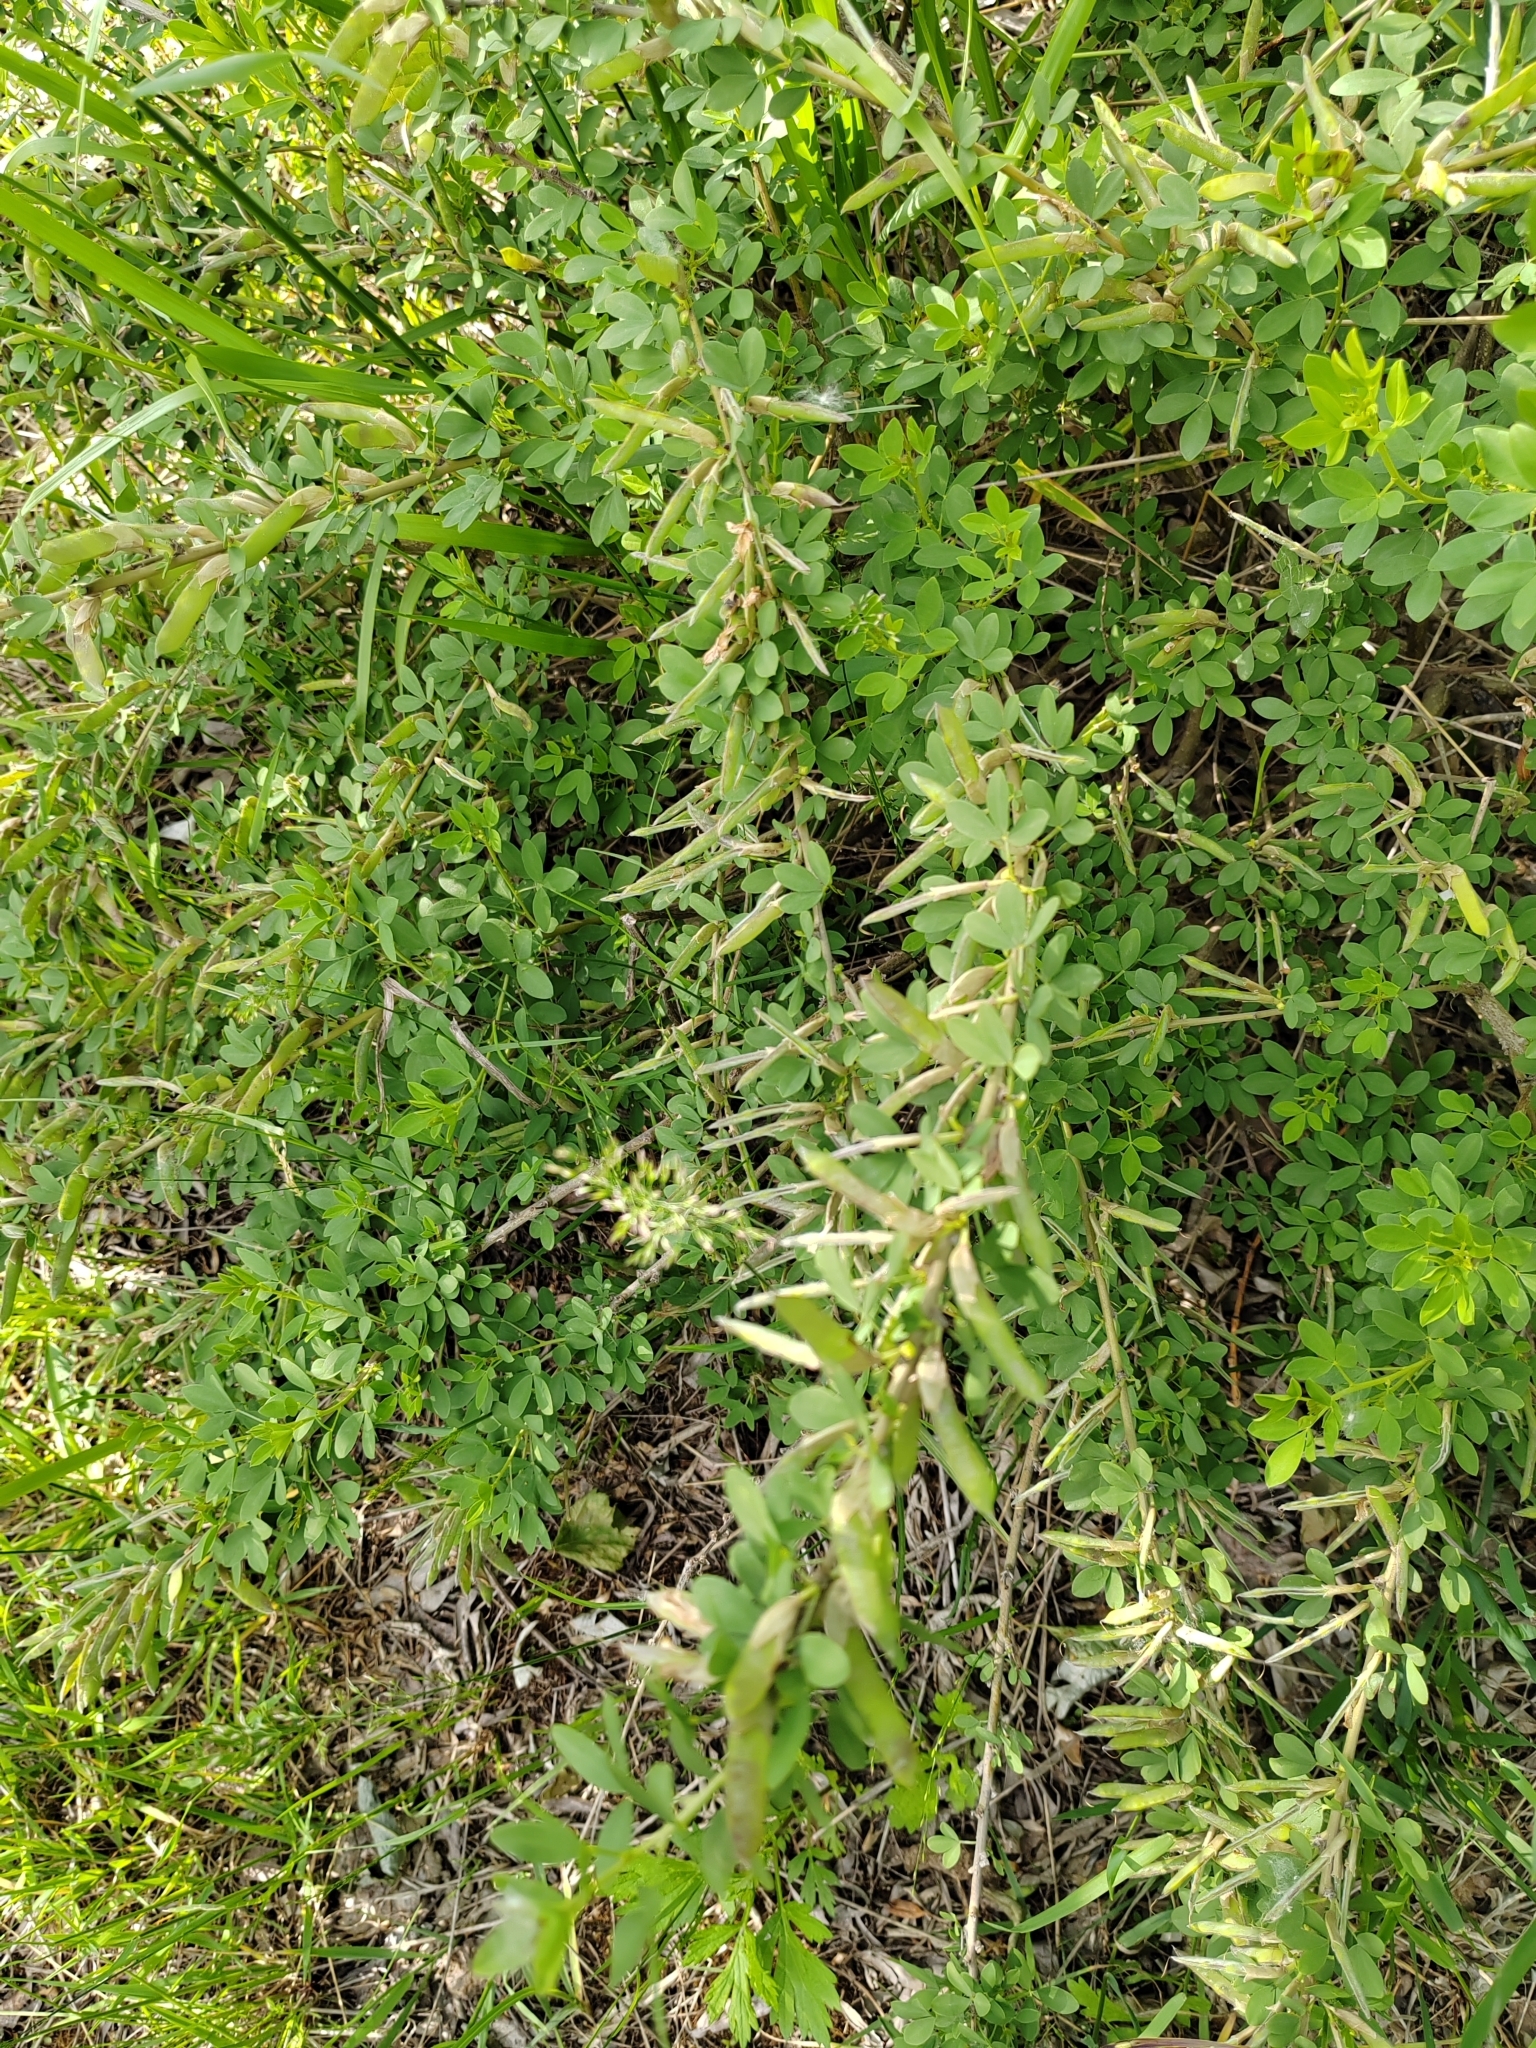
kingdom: Plantae
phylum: Tracheophyta
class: Magnoliopsida
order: Fabales
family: Fabaceae
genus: Chamaecytisus
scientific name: Chamaecytisus ruthenicus
